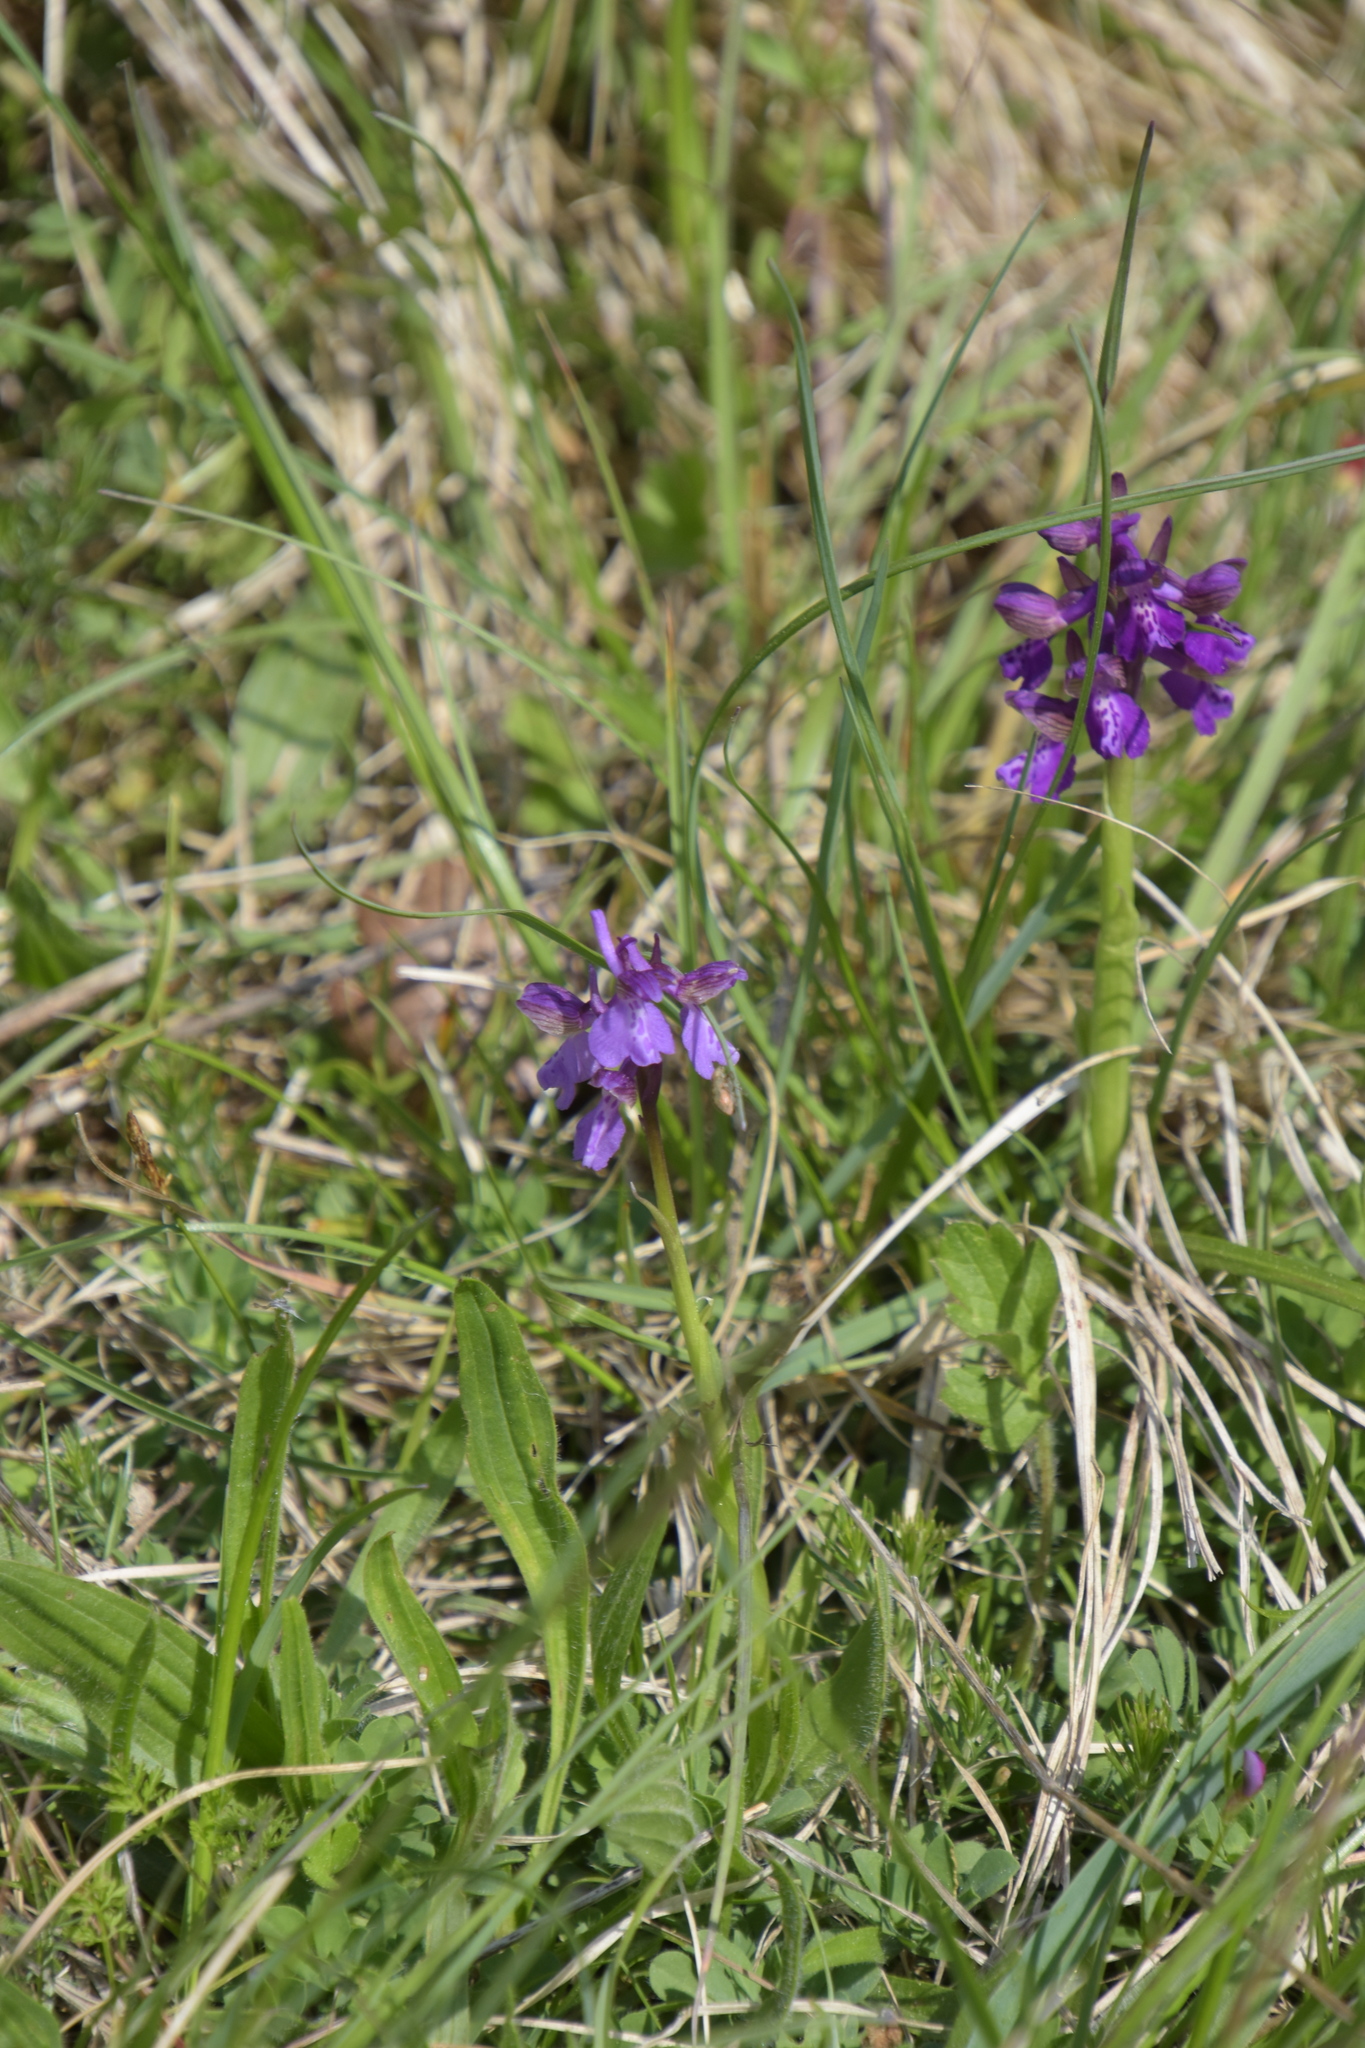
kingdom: Plantae
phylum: Tracheophyta
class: Liliopsida
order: Asparagales
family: Orchidaceae
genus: Anacamptis
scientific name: Anacamptis morio
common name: Green-winged orchid
